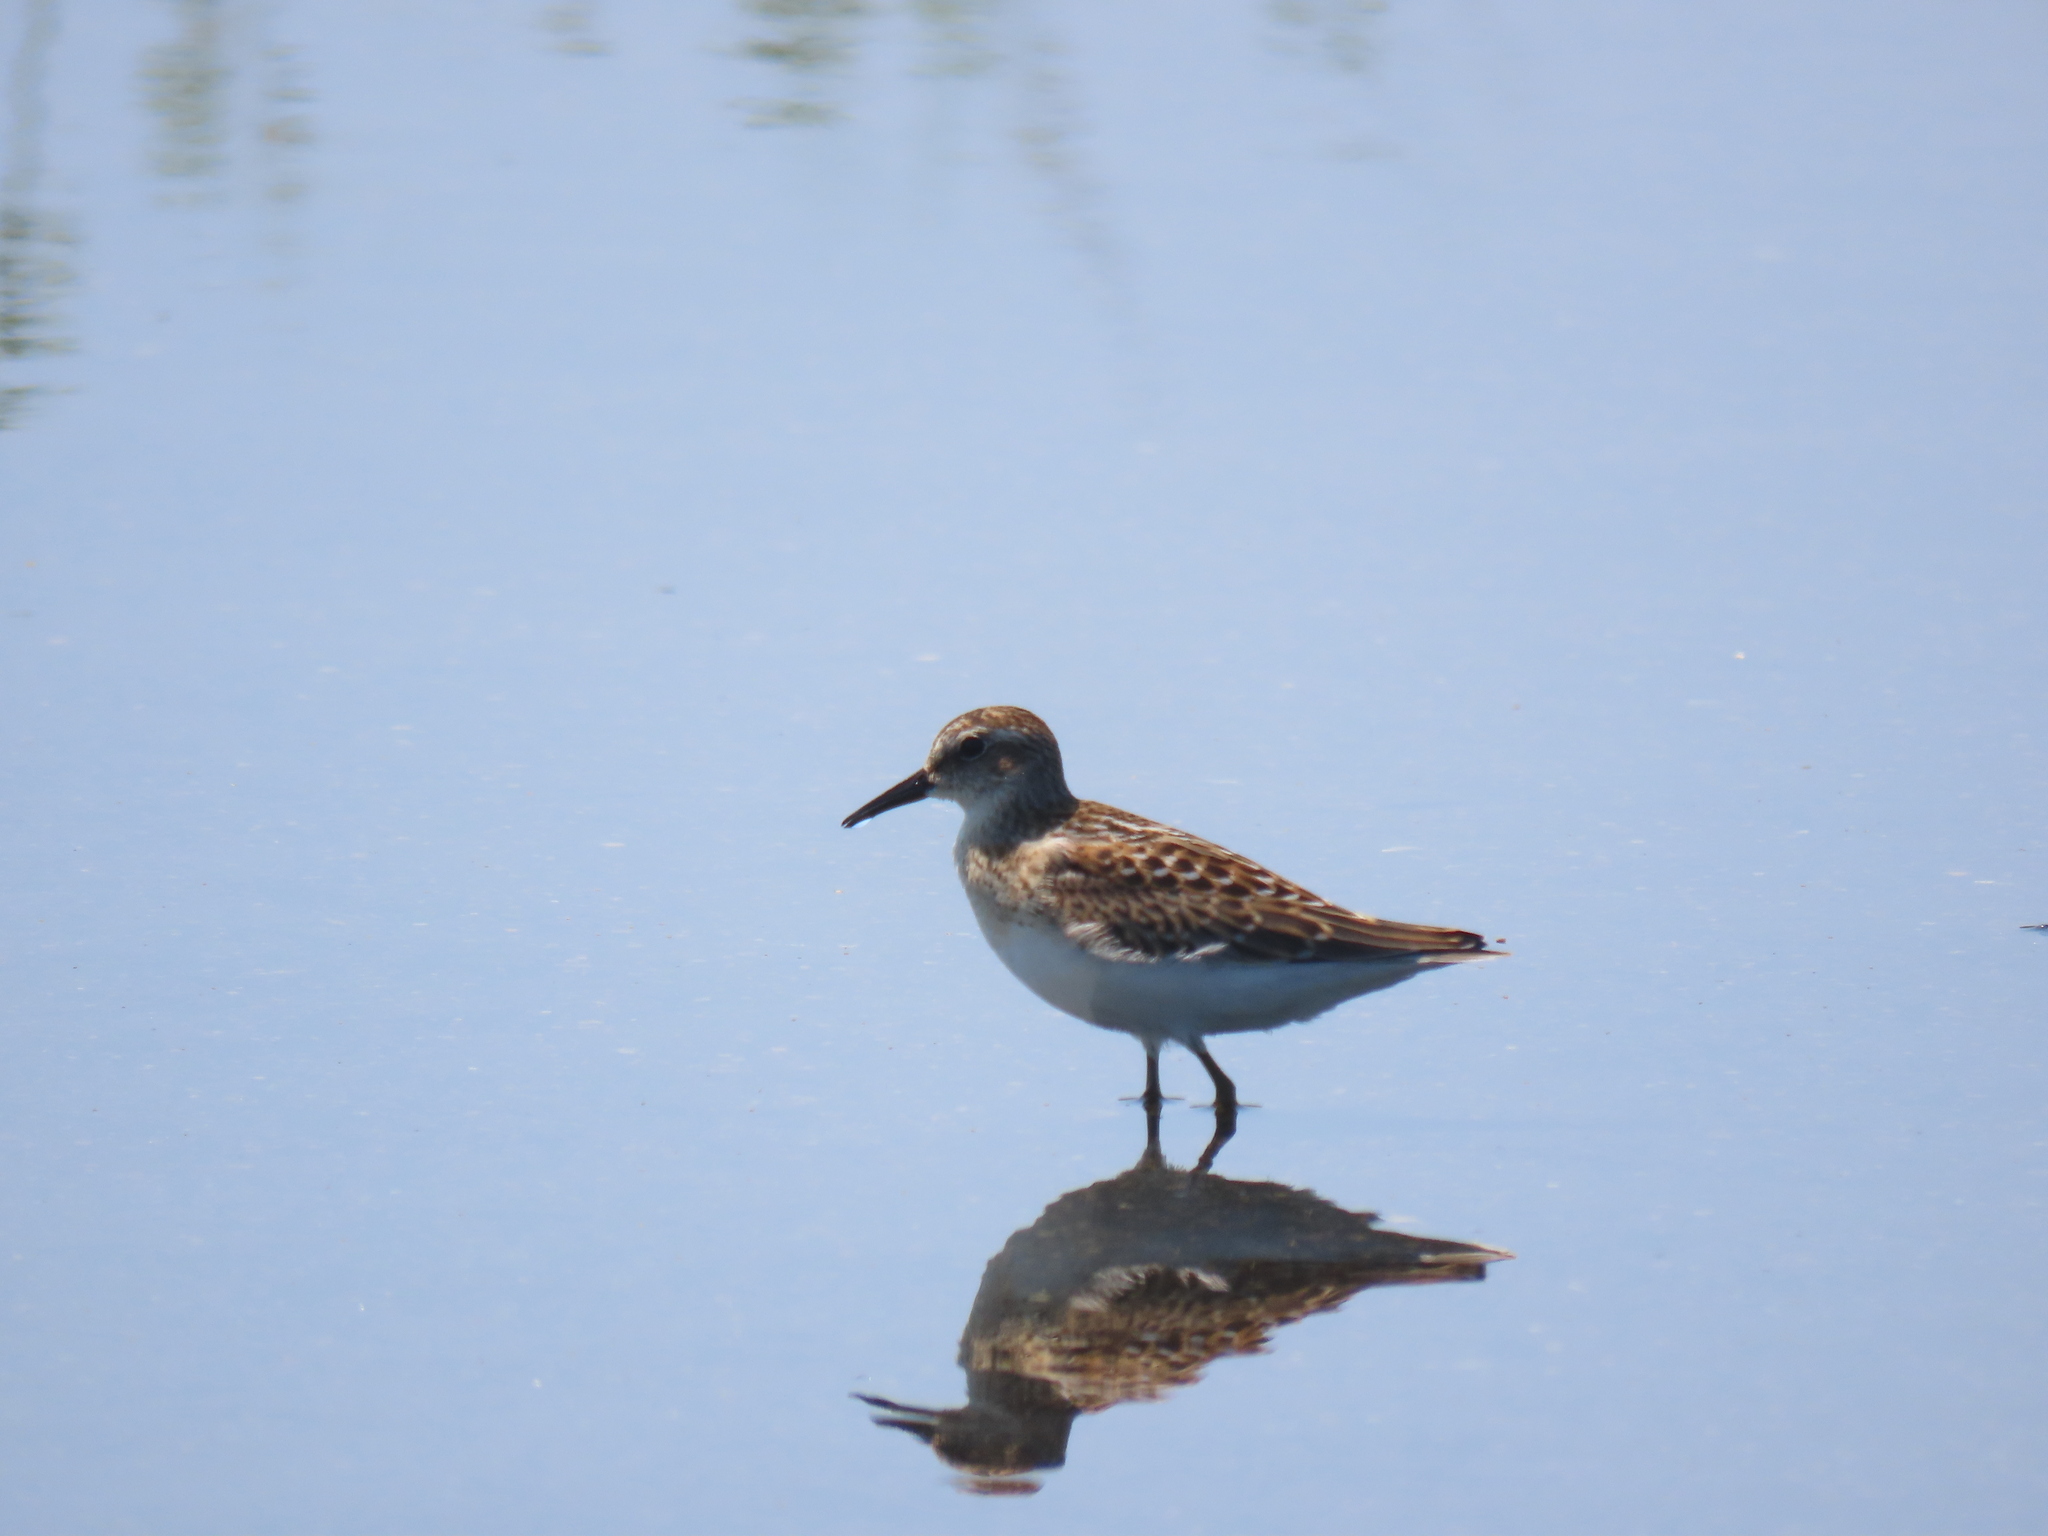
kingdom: Animalia
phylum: Chordata
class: Aves
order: Charadriiformes
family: Scolopacidae
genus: Calidris
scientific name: Calidris minutilla
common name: Least sandpiper
